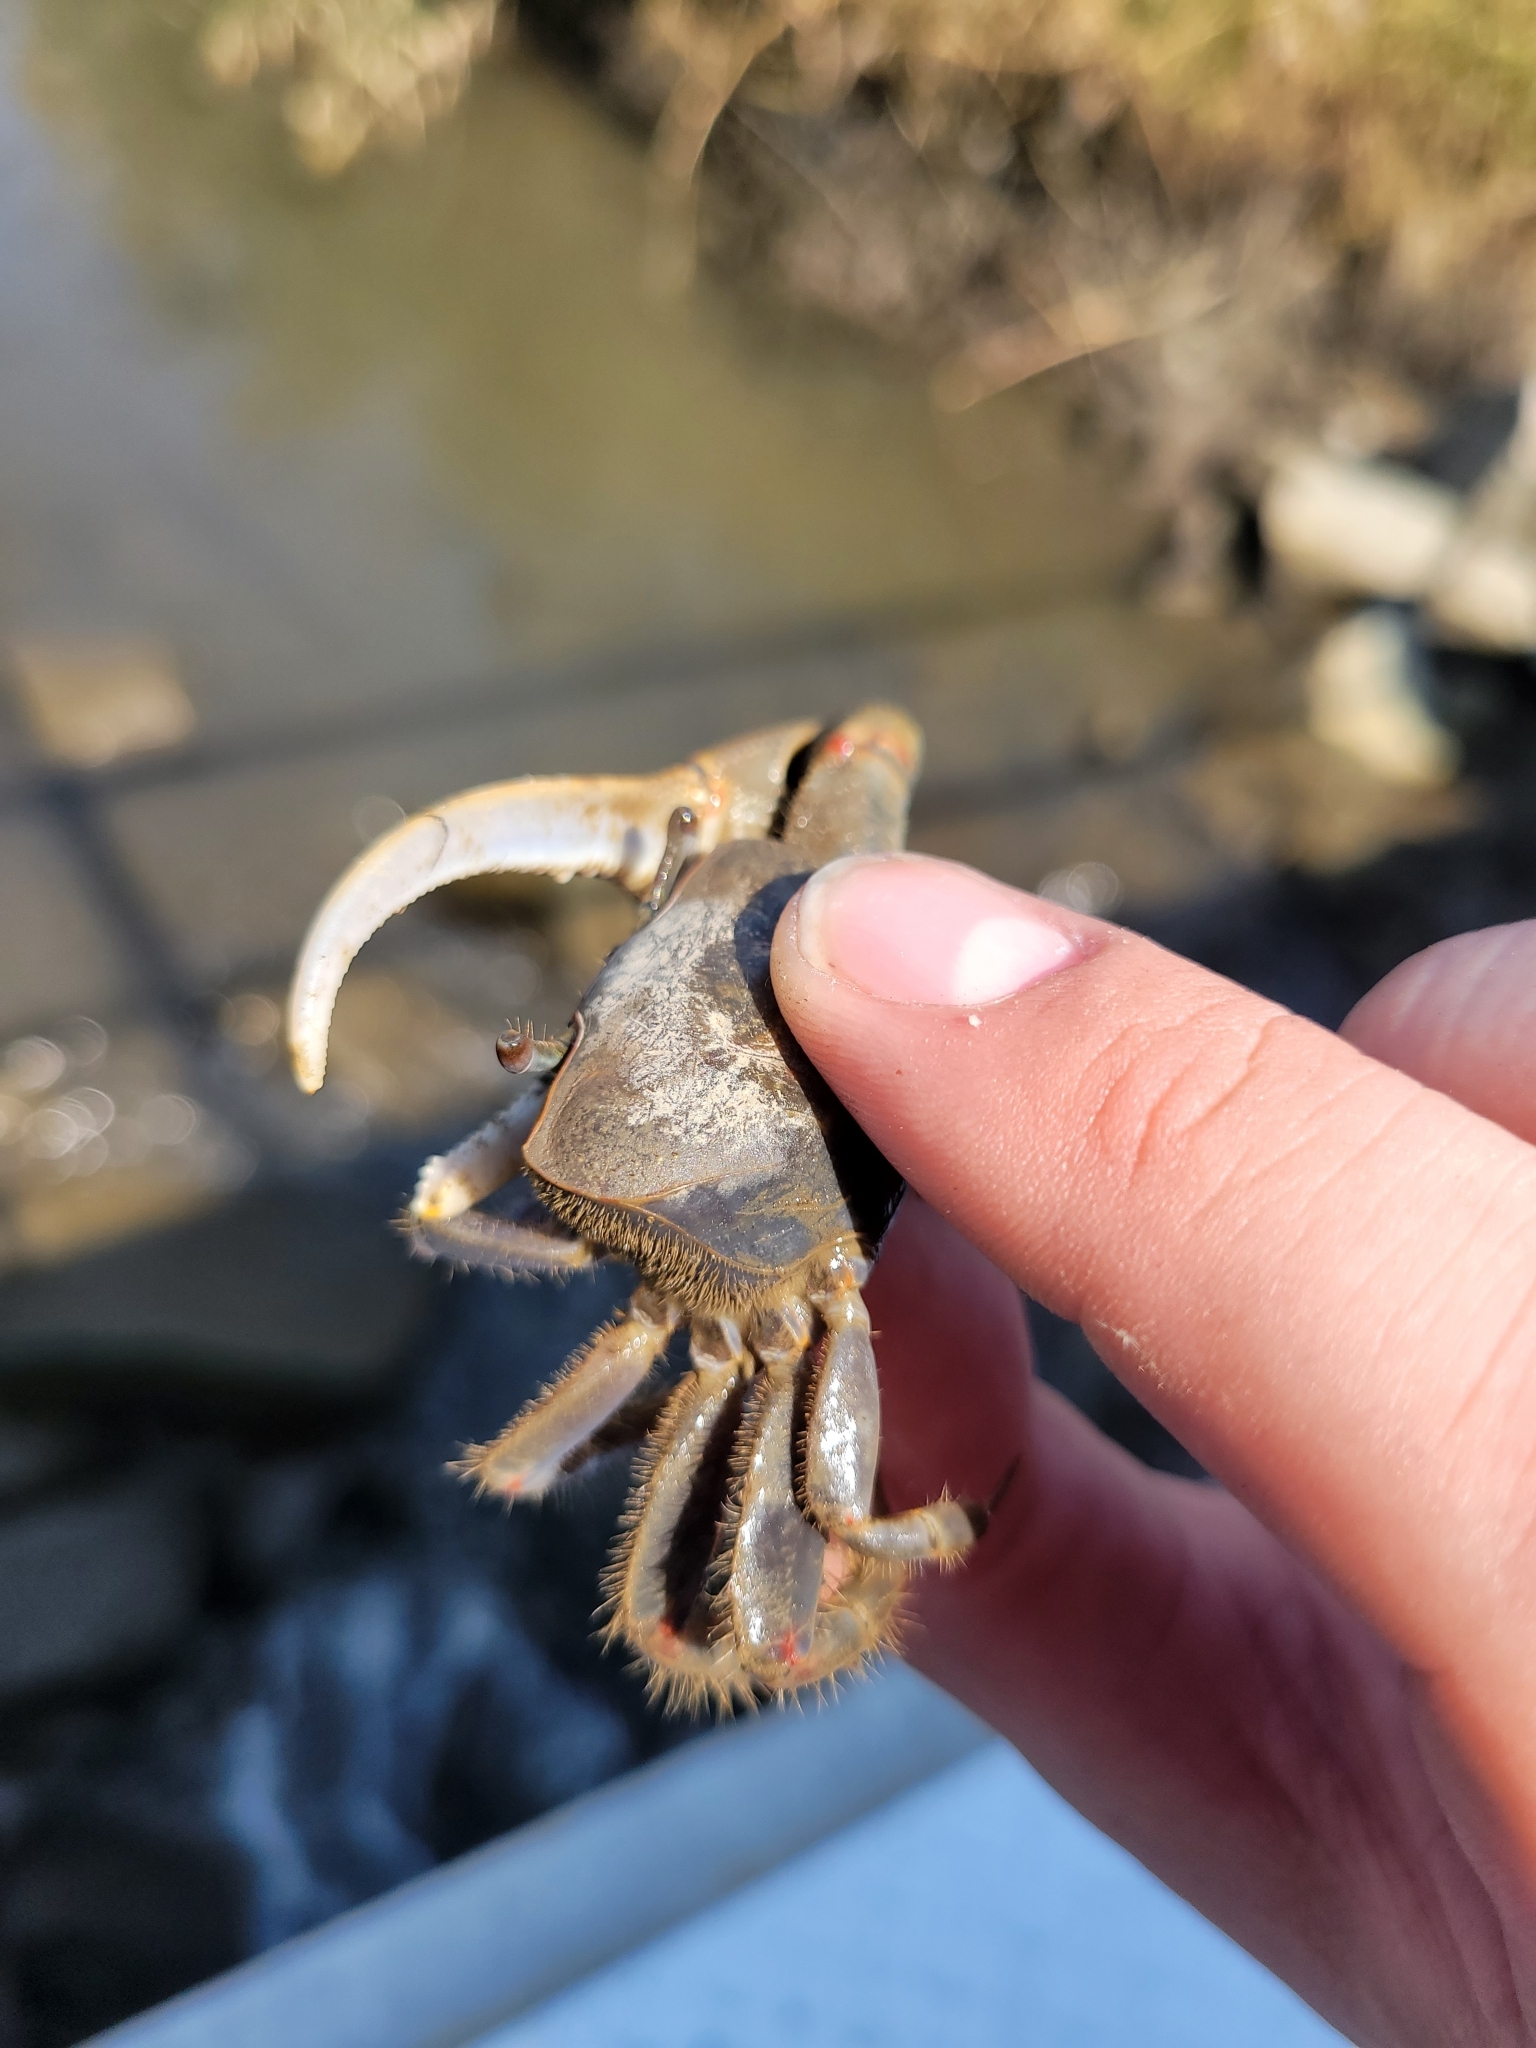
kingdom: Animalia
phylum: Arthropoda
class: Malacostraca
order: Decapoda
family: Ocypodidae
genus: Minuca
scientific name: Minuca minax
